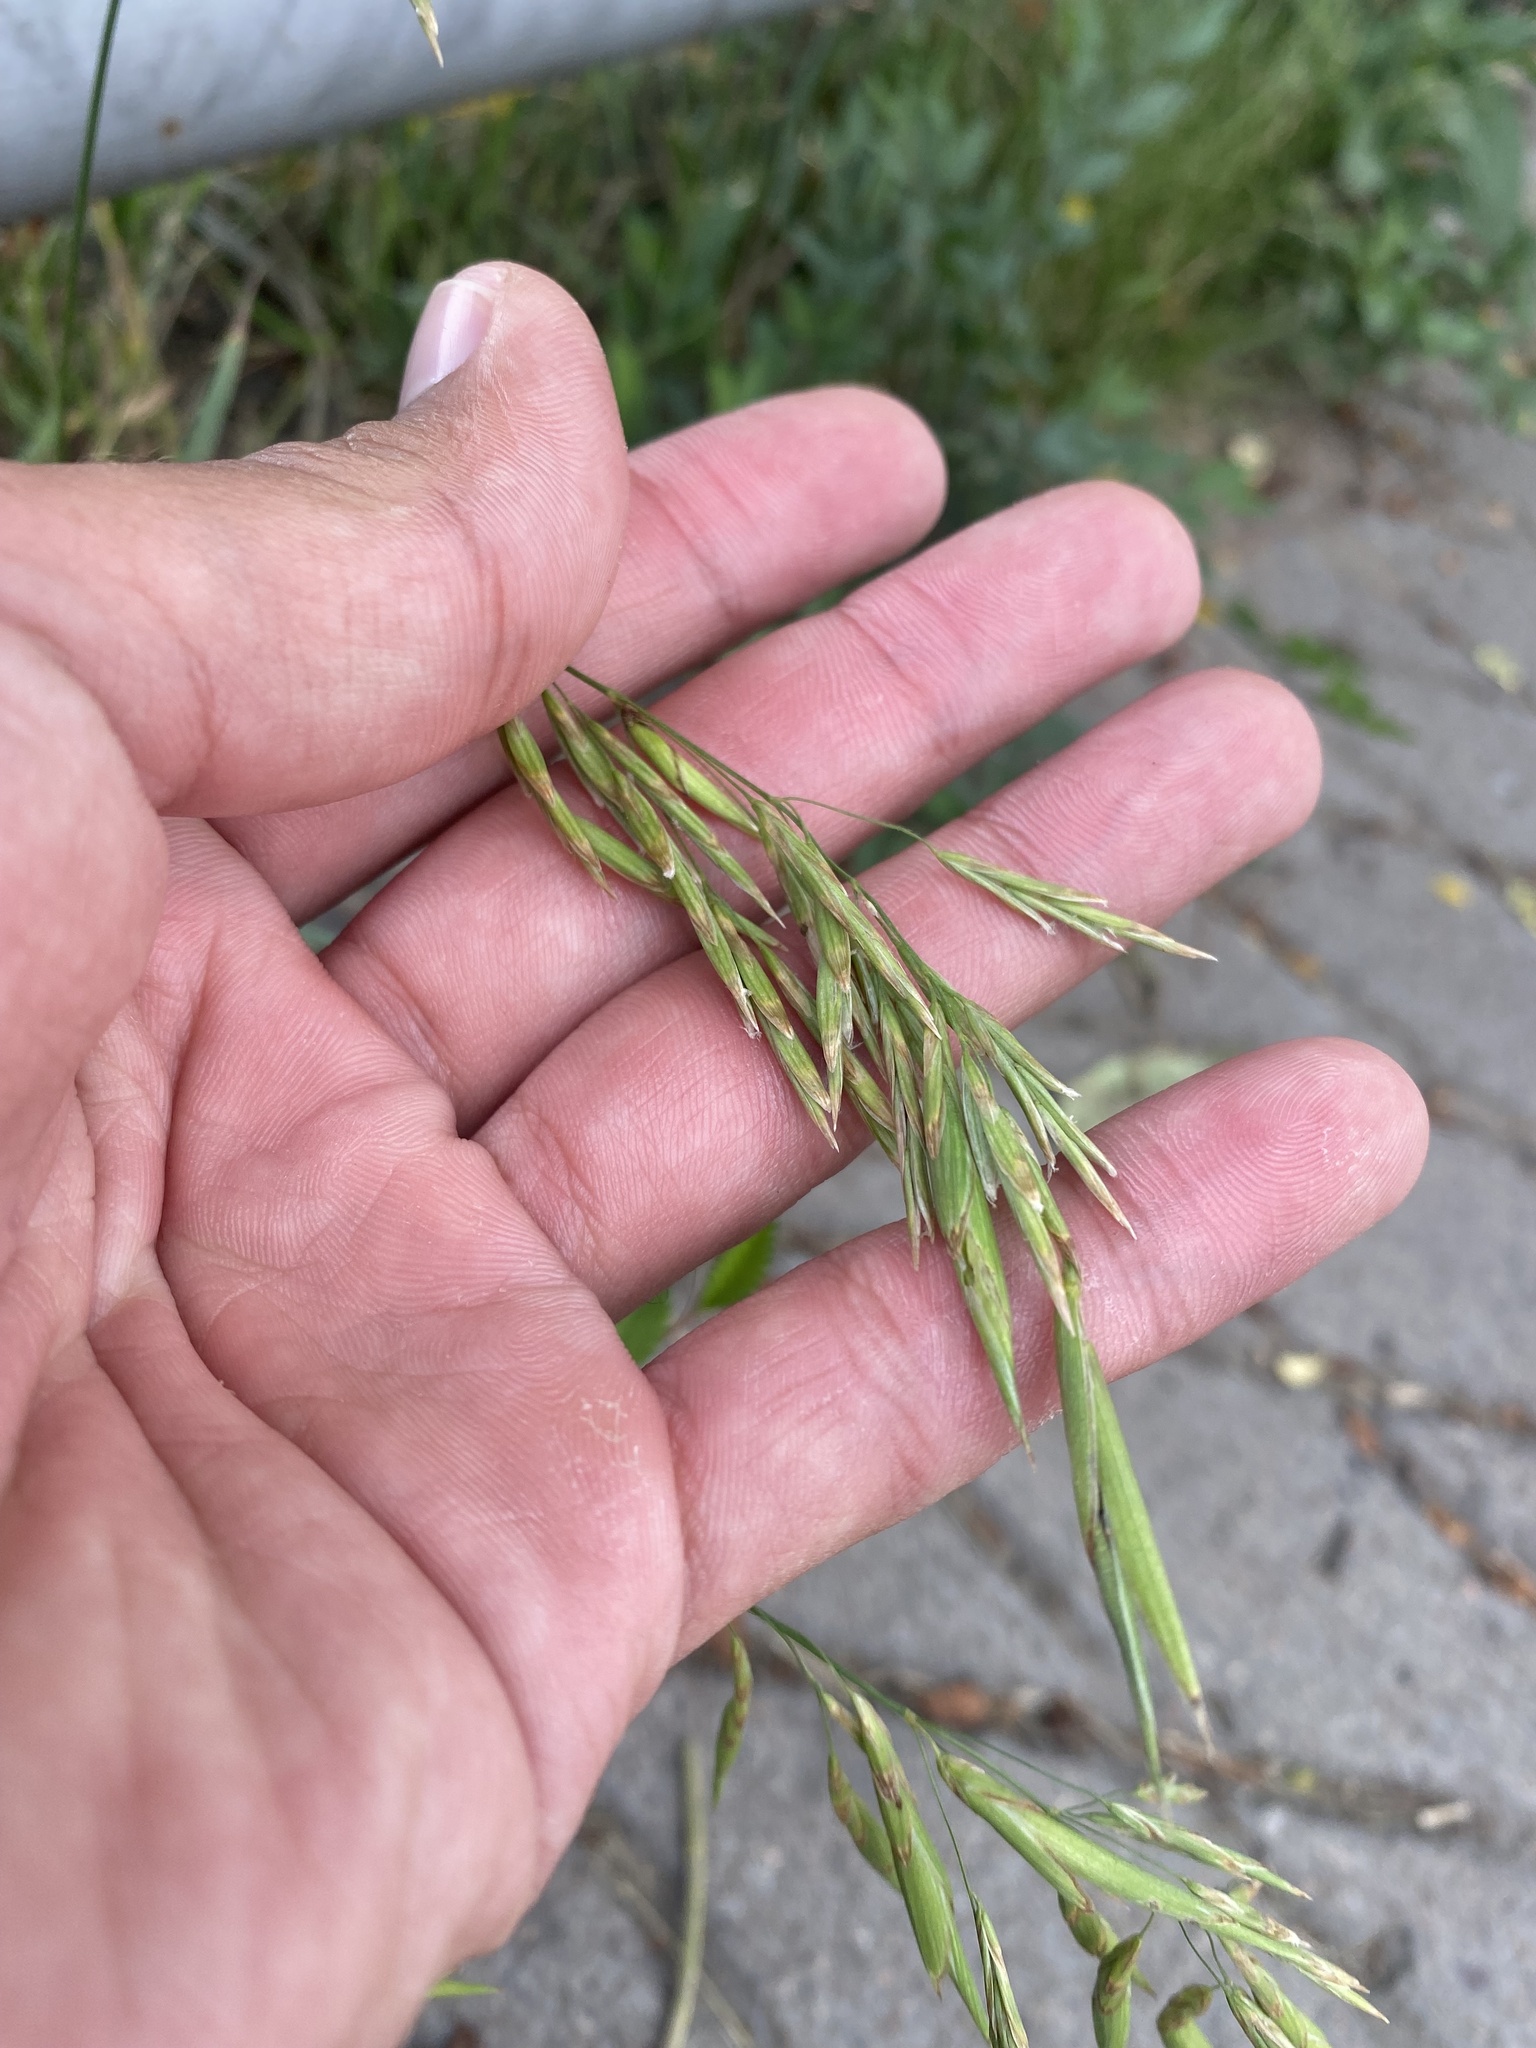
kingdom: Plantae
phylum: Tracheophyta
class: Liliopsida
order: Poales
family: Poaceae
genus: Bromus
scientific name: Bromus inermis
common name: Smooth brome
